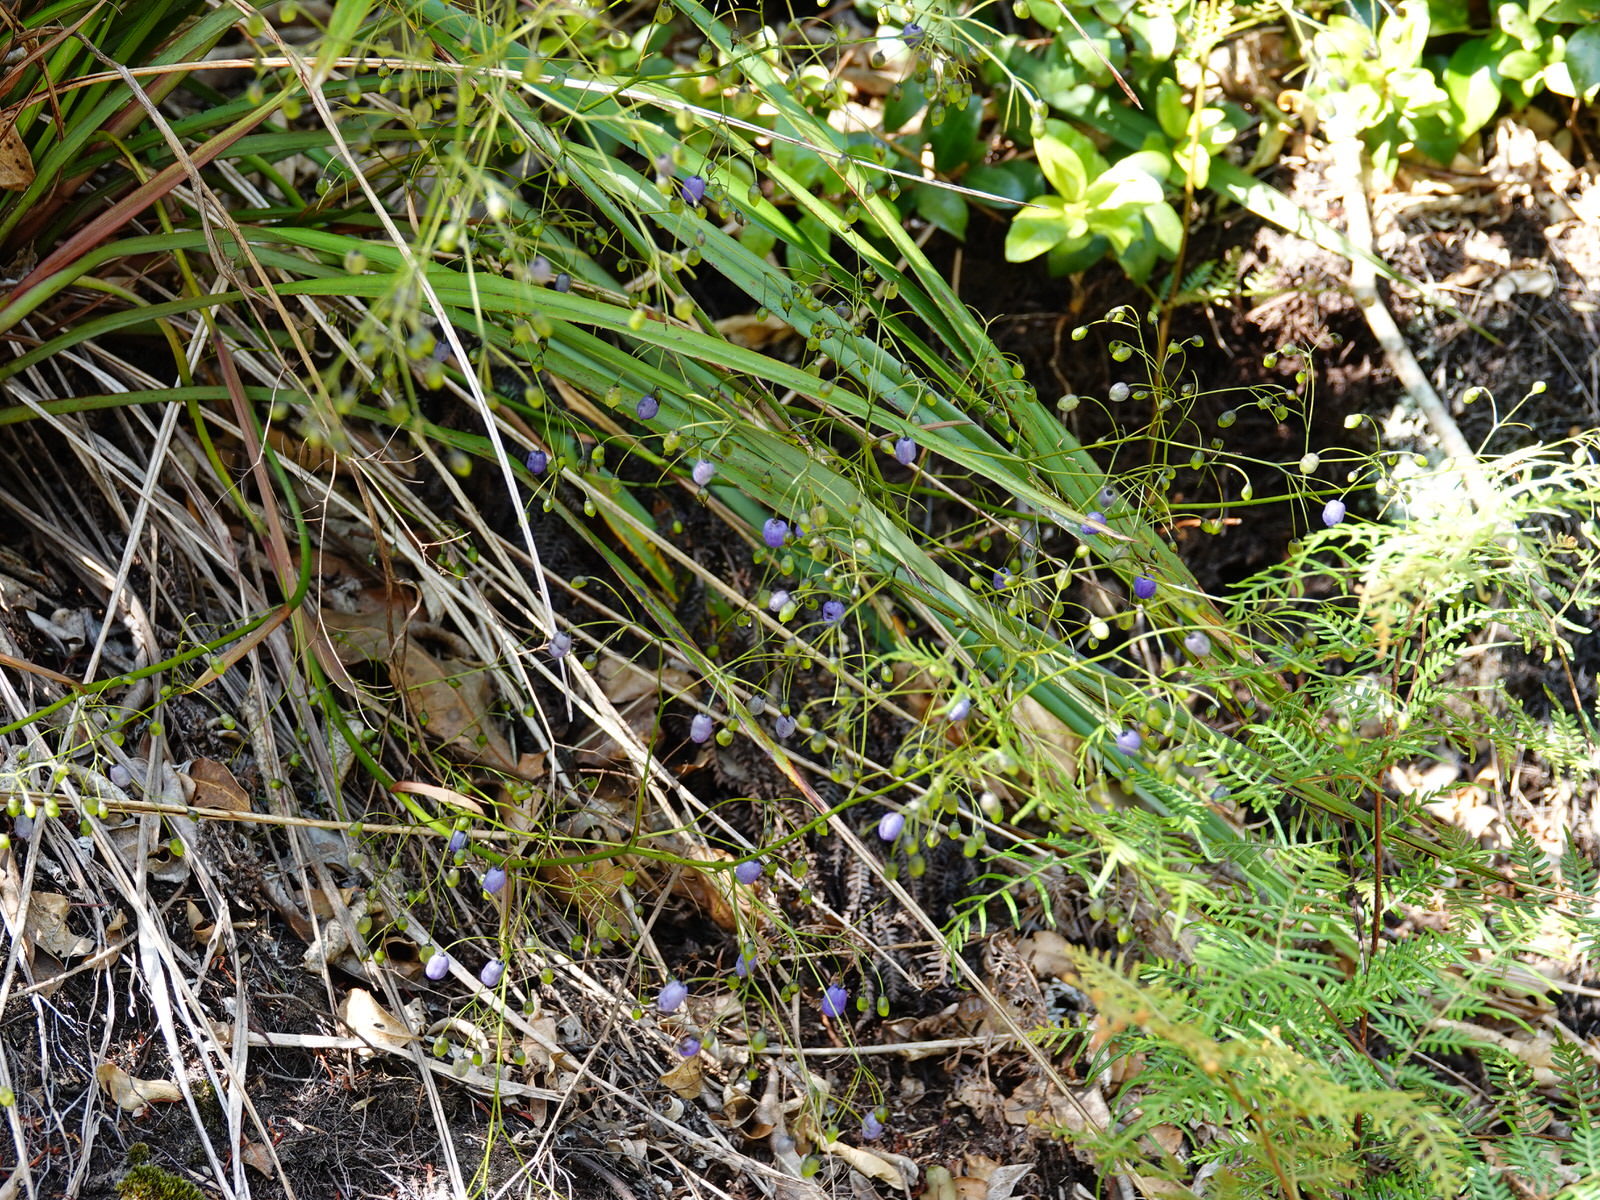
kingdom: Plantae
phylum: Tracheophyta
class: Liliopsida
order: Asparagales
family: Asphodelaceae
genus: Dianella
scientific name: Dianella nigra
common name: New zealand-blueberry
